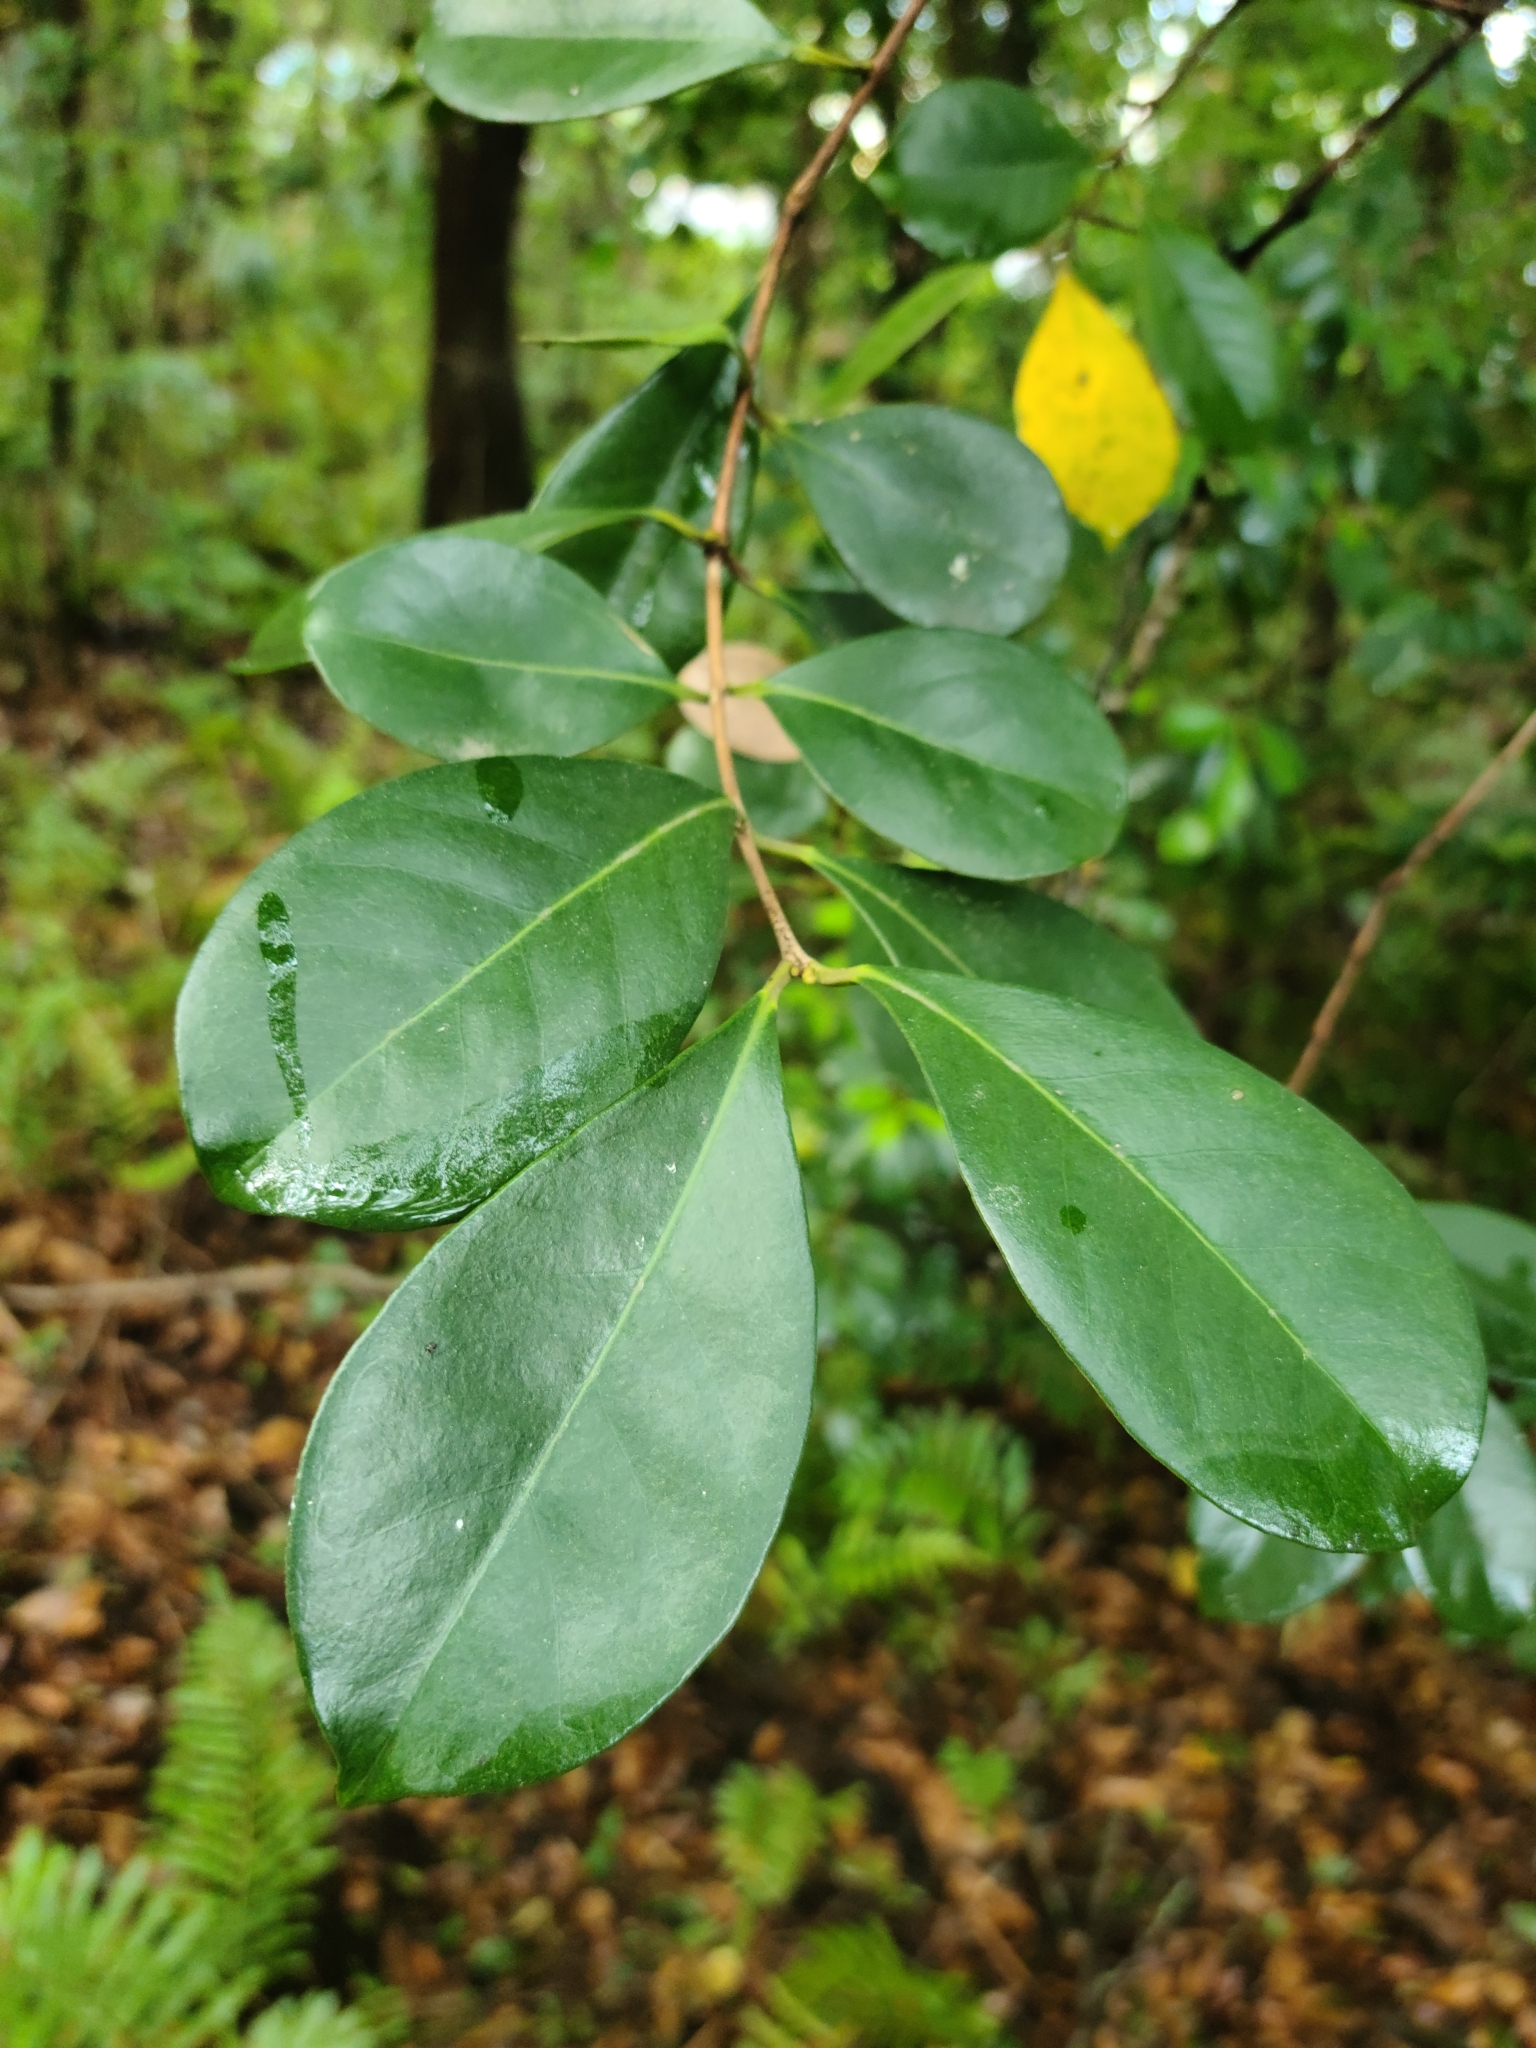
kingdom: Plantae
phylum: Tracheophyta
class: Magnoliopsida
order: Myrtales
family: Myrtaceae
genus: Psidium
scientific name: Psidium cattleianum
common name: Strawberry guava
